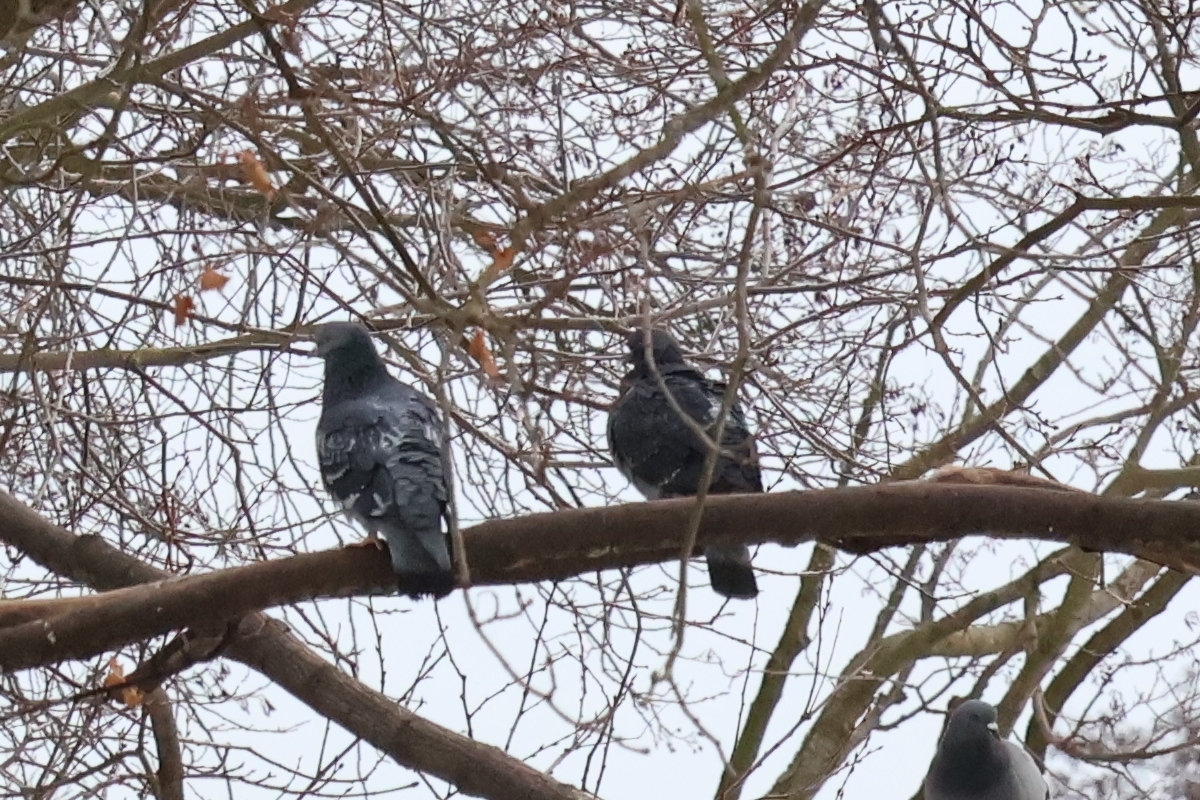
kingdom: Animalia
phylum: Chordata
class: Aves
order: Columbiformes
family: Columbidae
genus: Columba
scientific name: Columba livia
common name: Rock pigeon
